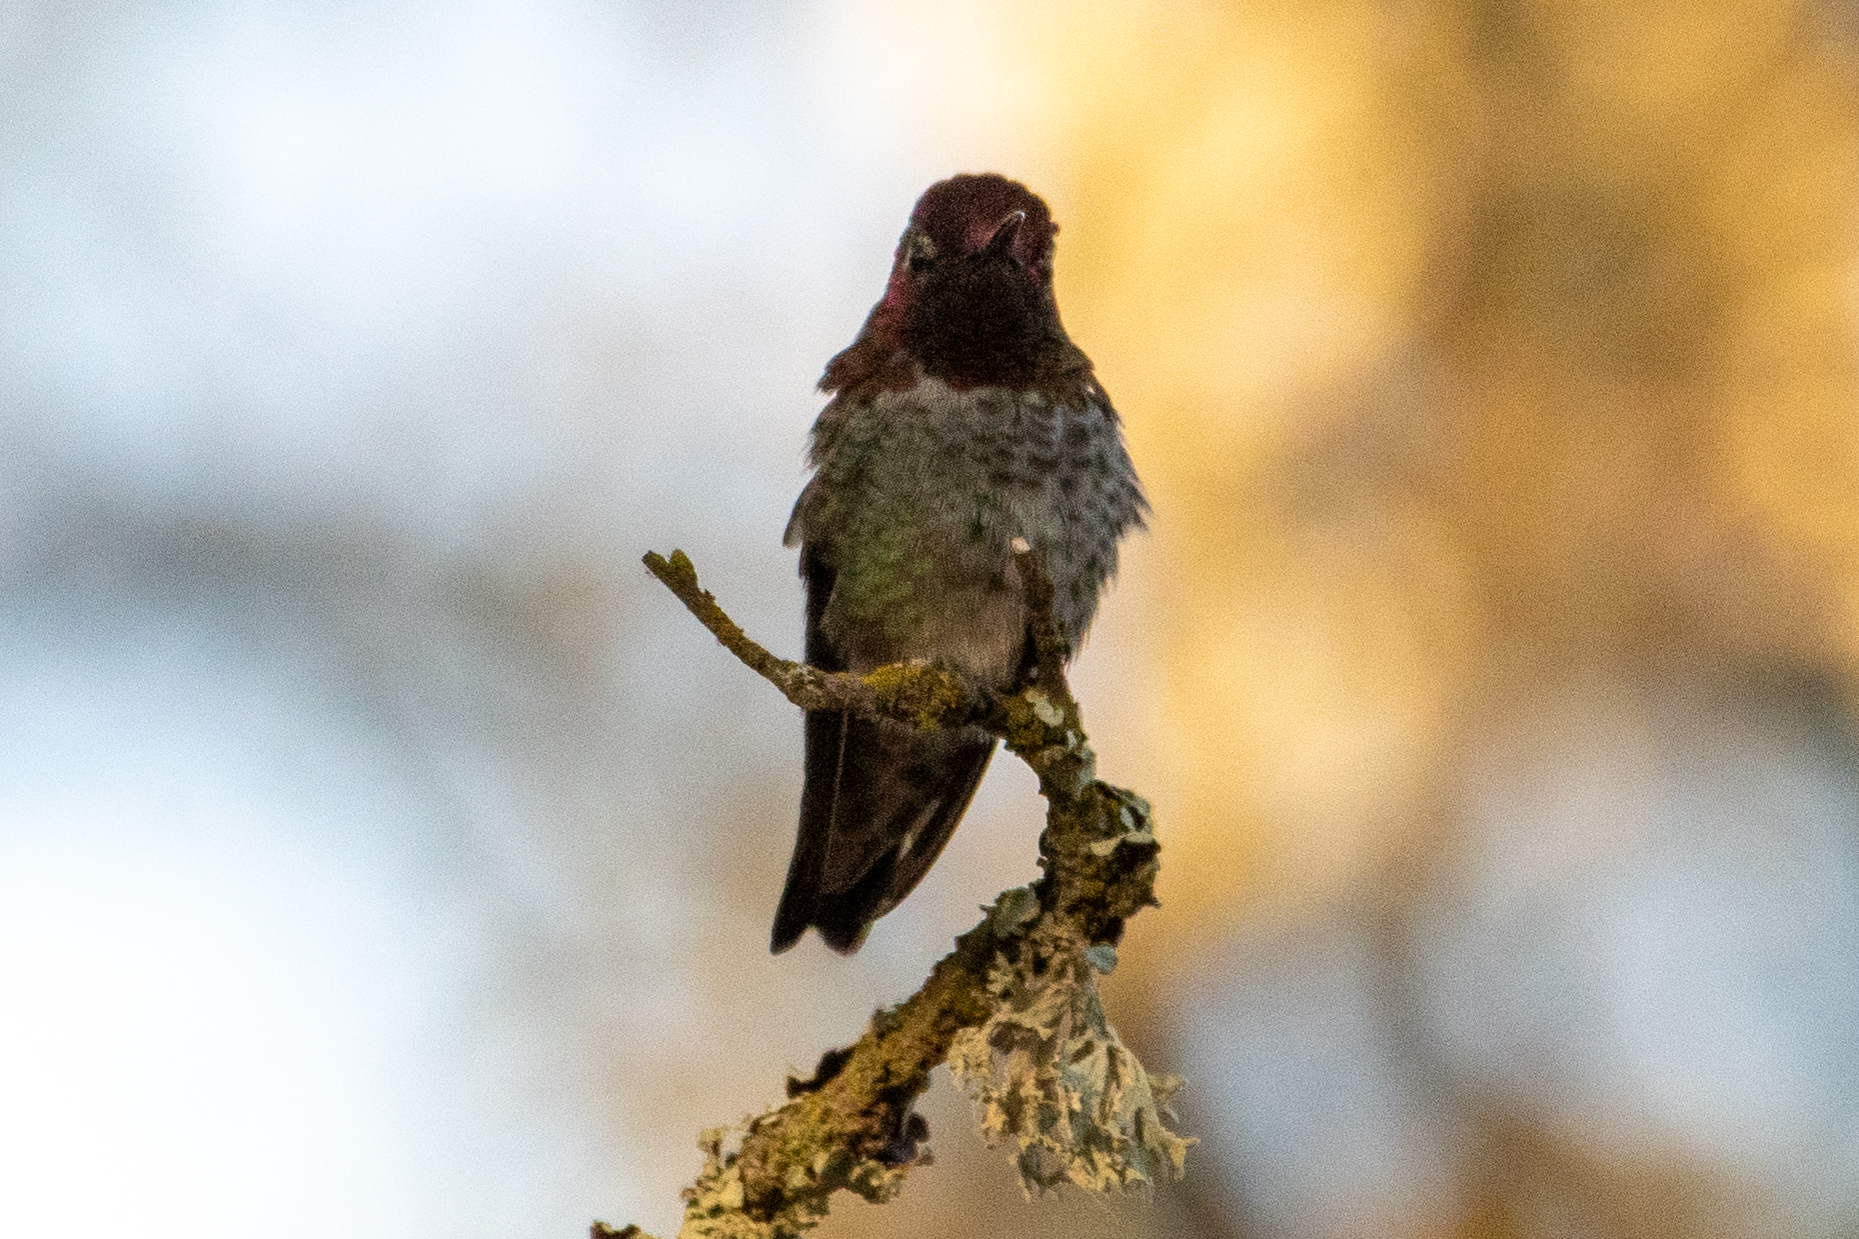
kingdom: Animalia
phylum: Chordata
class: Aves
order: Apodiformes
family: Trochilidae
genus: Calypte
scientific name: Calypte anna
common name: Anna's hummingbird
